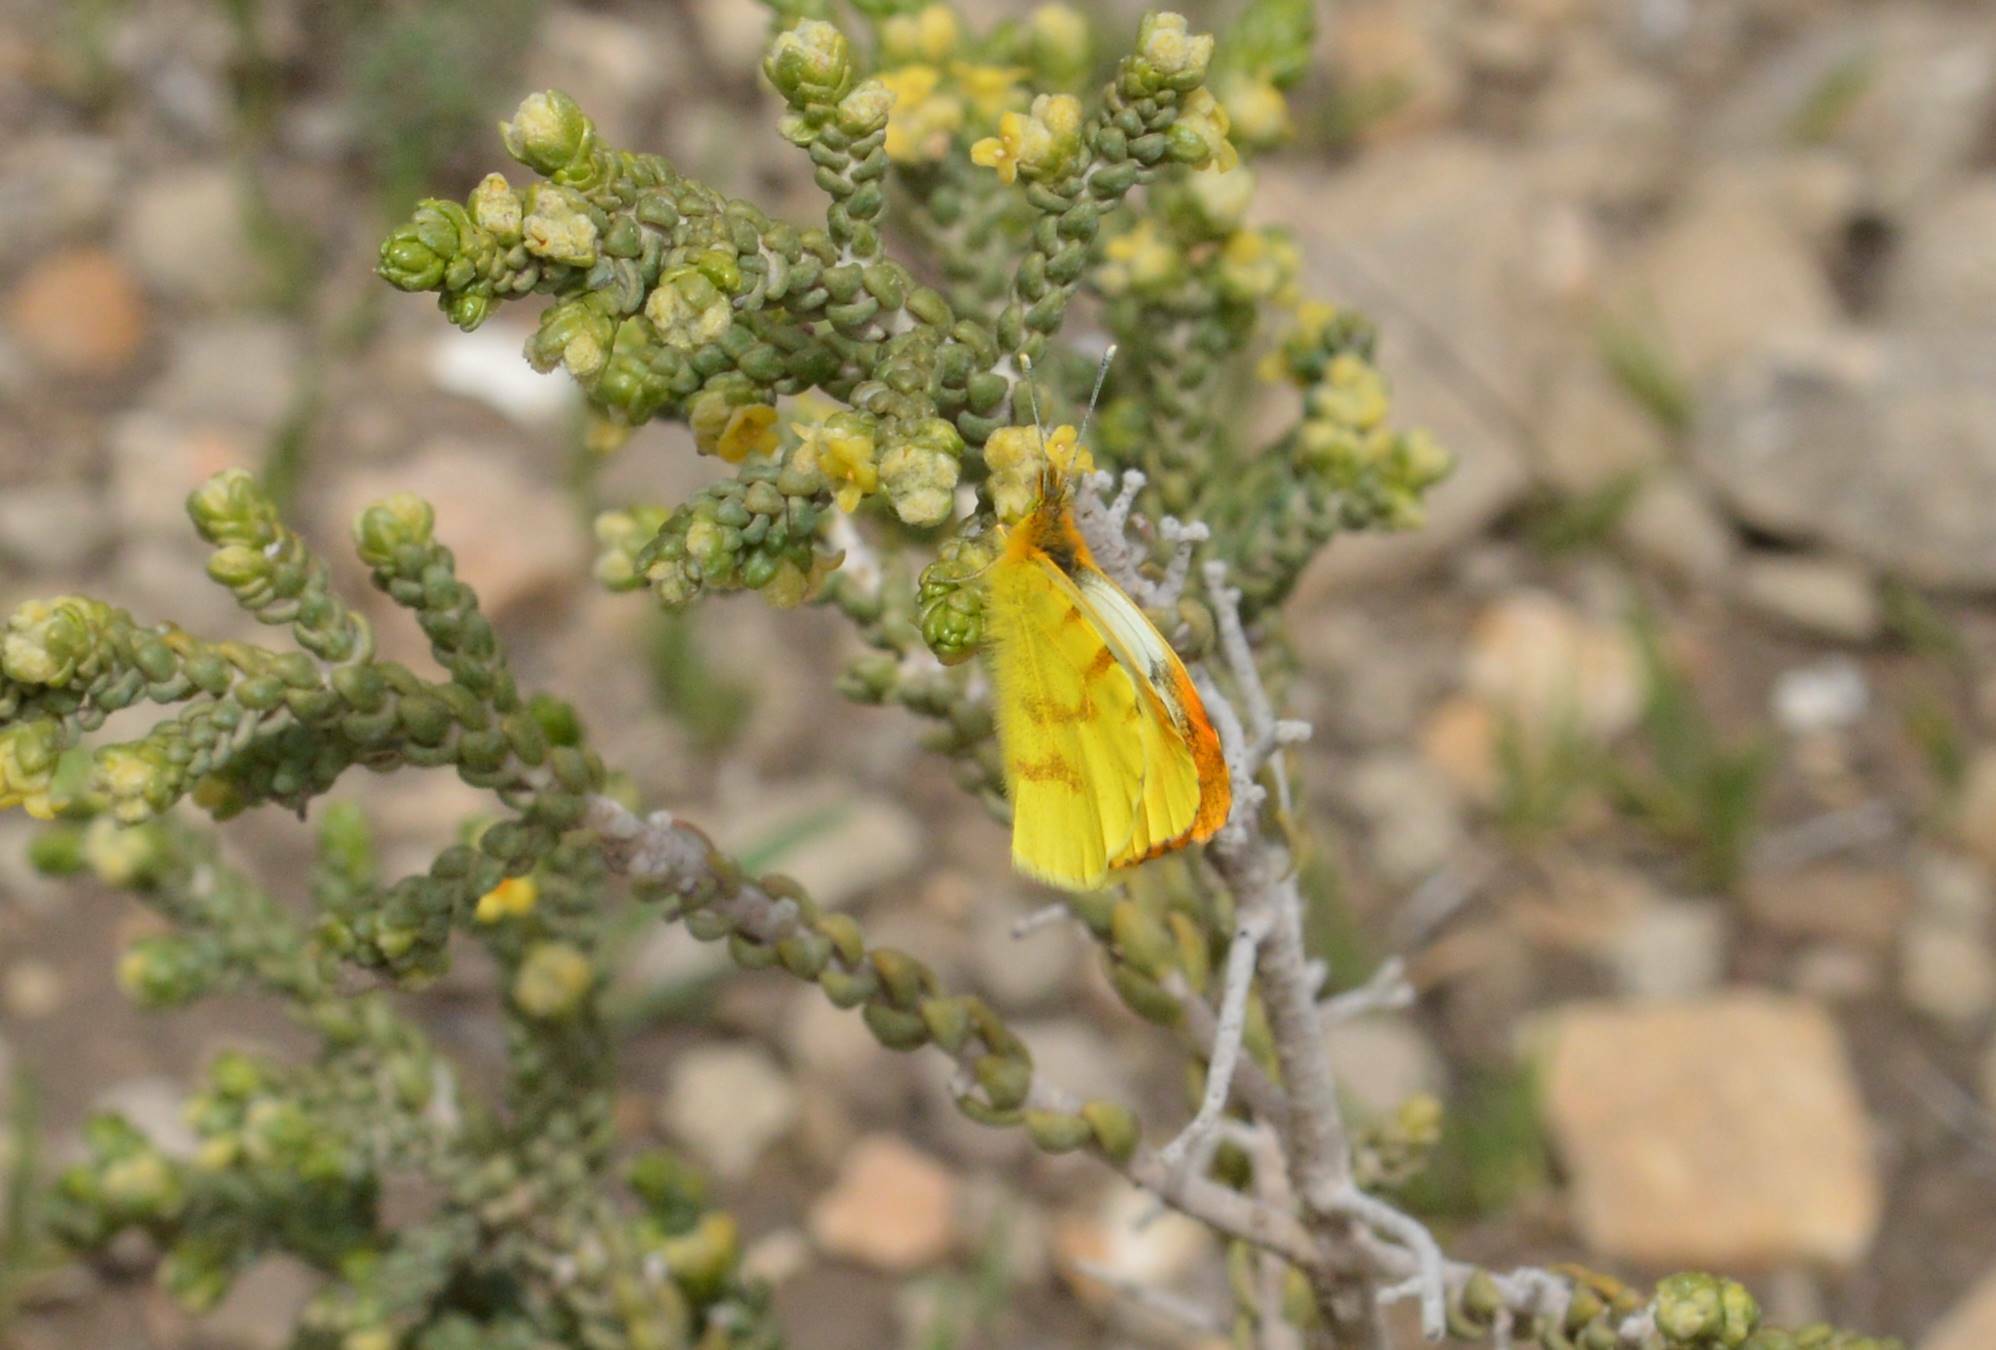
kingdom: Plantae
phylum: Tracheophyta
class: Magnoliopsida
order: Malvales
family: Thymelaeaceae
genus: Thymelaea
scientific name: Thymelaea hirsuta
